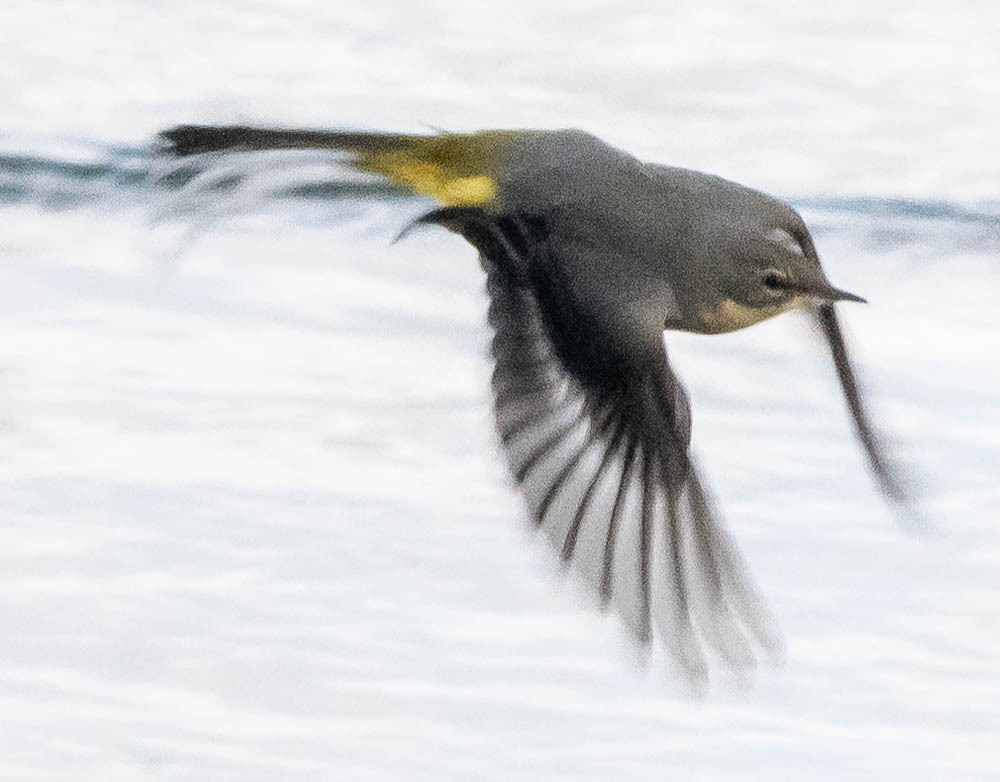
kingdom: Animalia
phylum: Chordata
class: Aves
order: Passeriformes
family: Motacillidae
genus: Motacilla
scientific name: Motacilla cinerea
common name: Grey wagtail
